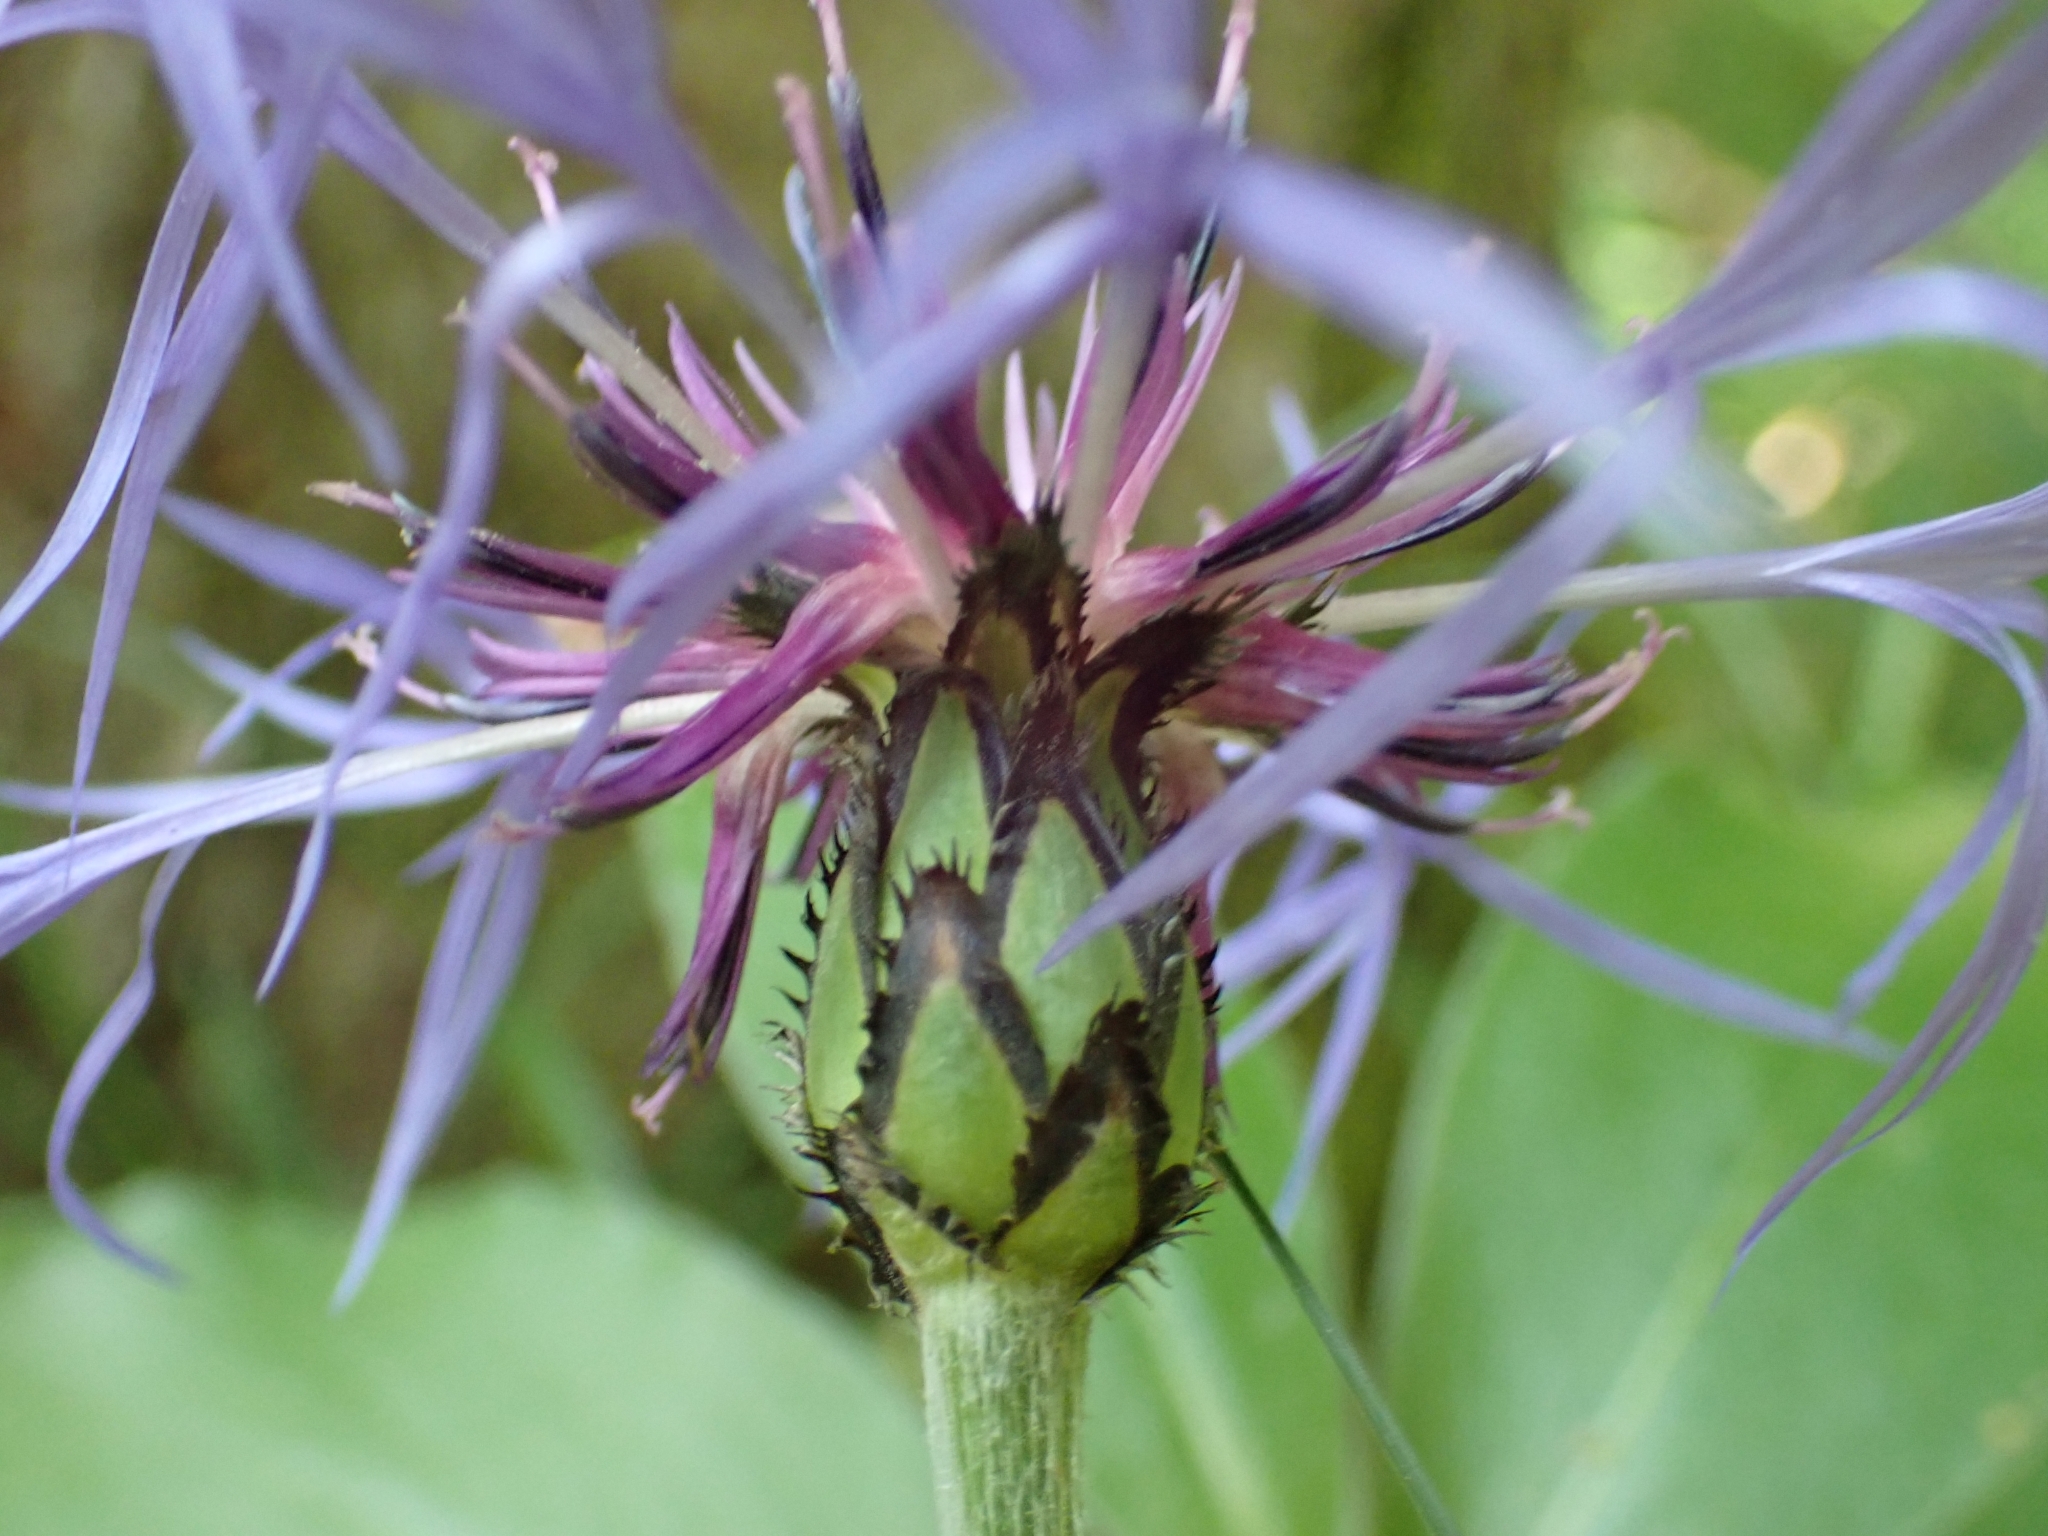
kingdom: Plantae
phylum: Tracheophyta
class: Magnoliopsida
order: Asterales
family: Asteraceae
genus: Centaurea
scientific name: Centaurea montana
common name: Perennial cornflower
